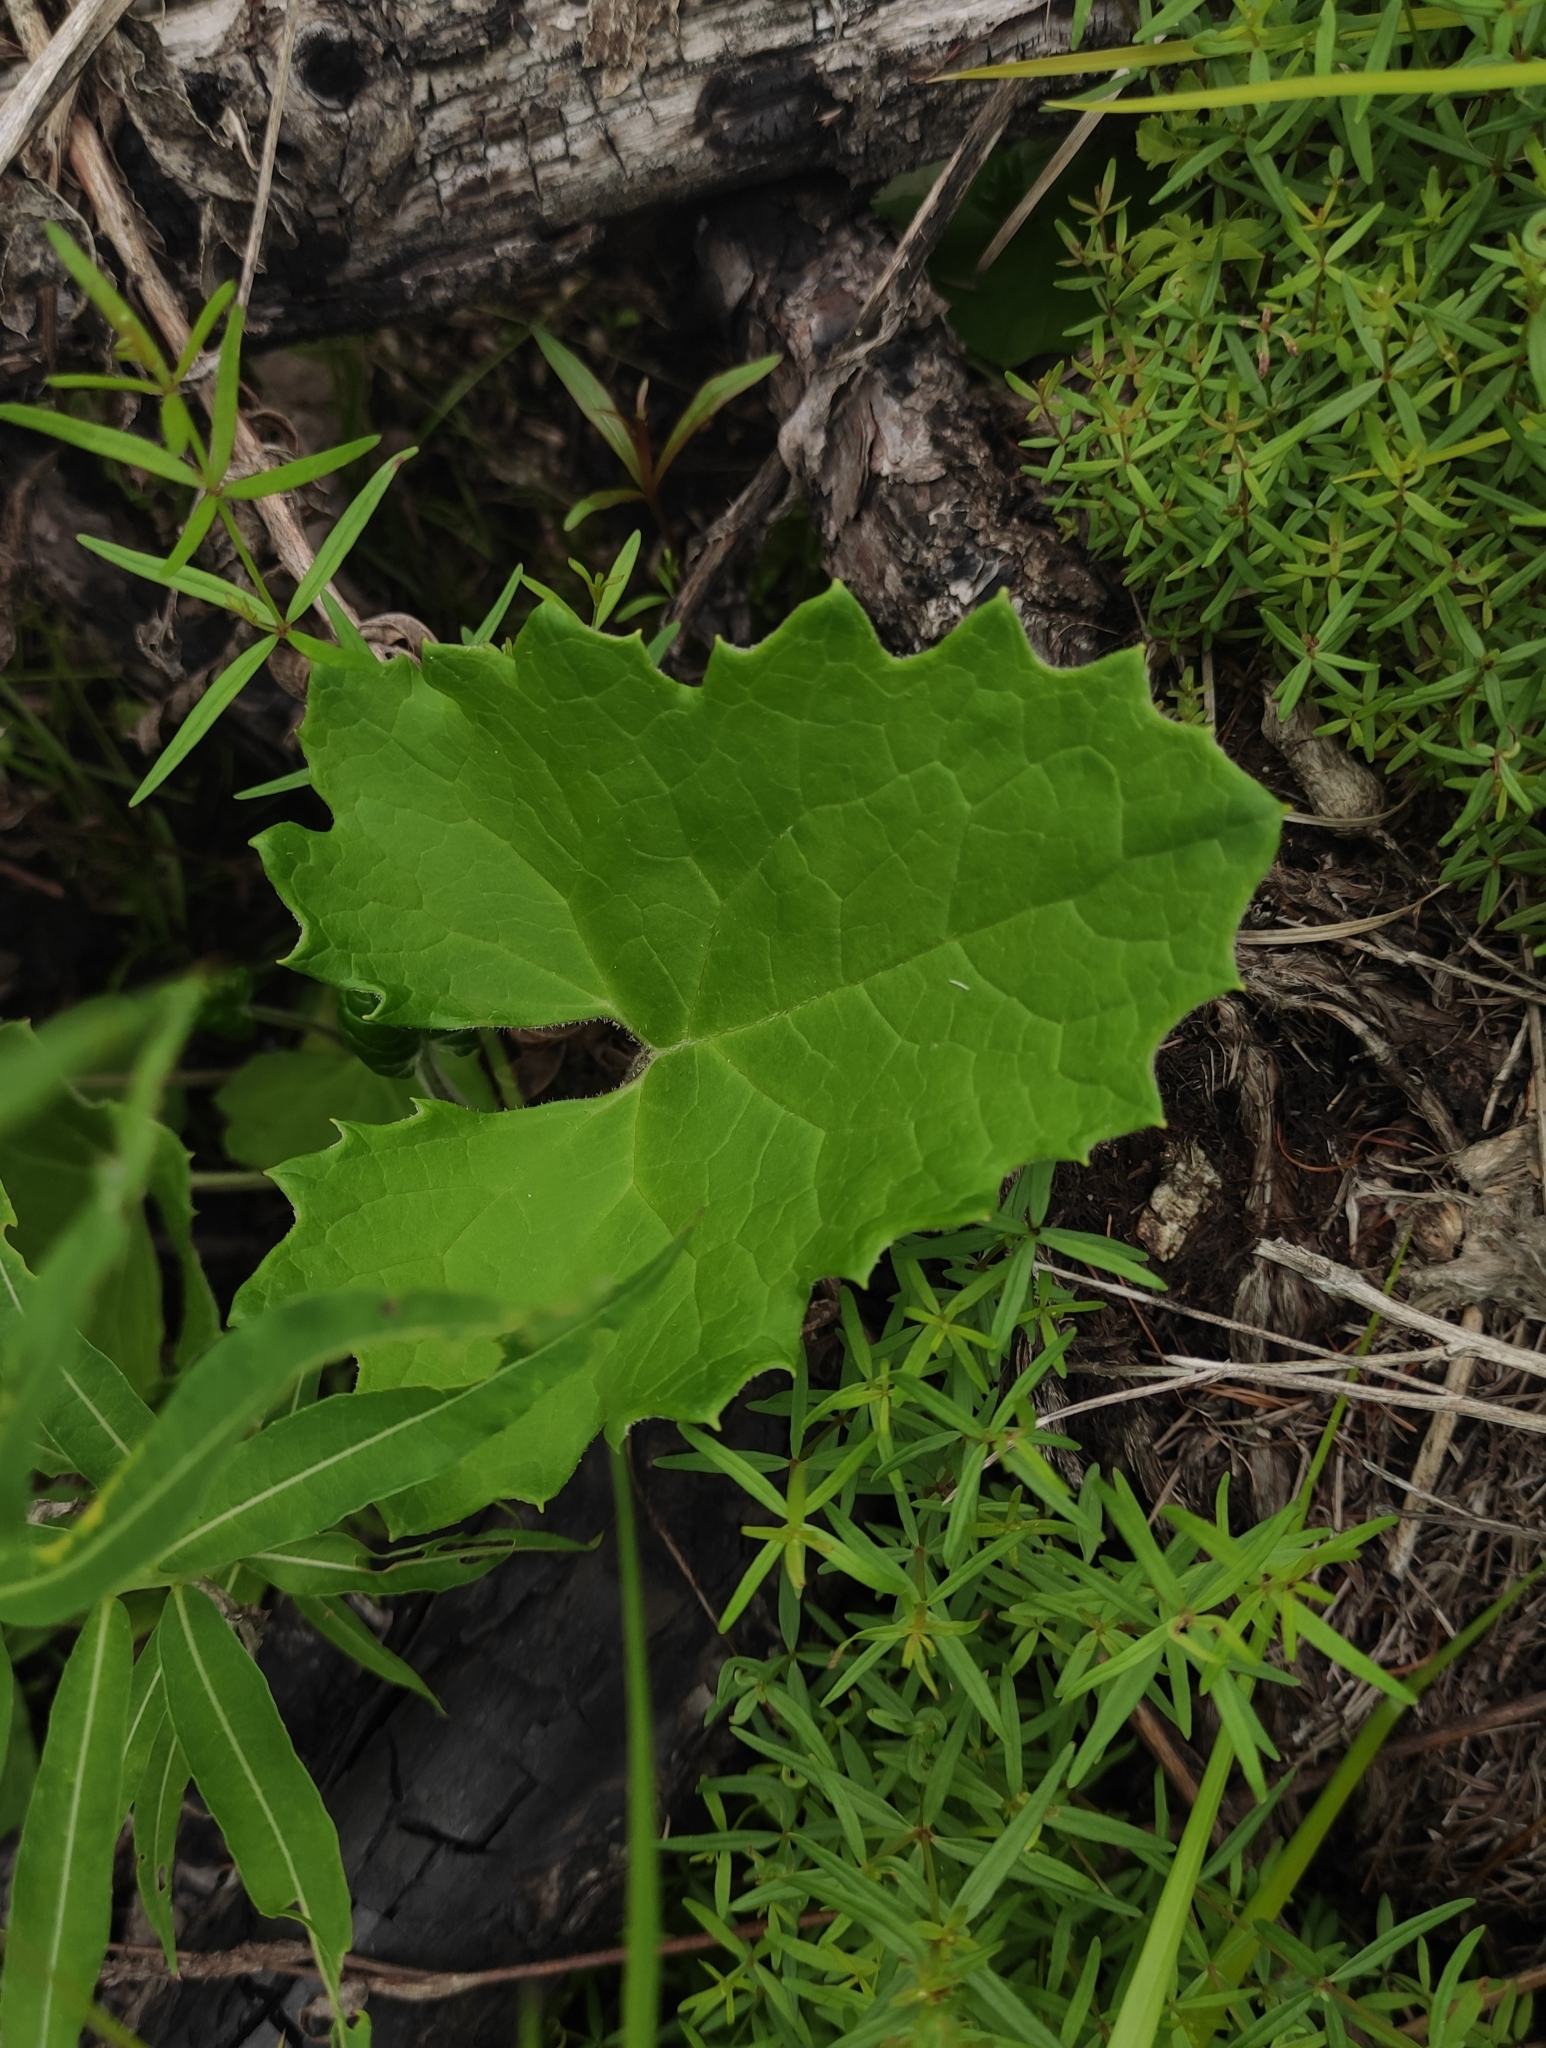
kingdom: Plantae
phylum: Tracheophyta
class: Magnoliopsida
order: Asterales
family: Asteraceae
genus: Petasites
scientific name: Petasites frigidus
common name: Arctic butterbur
